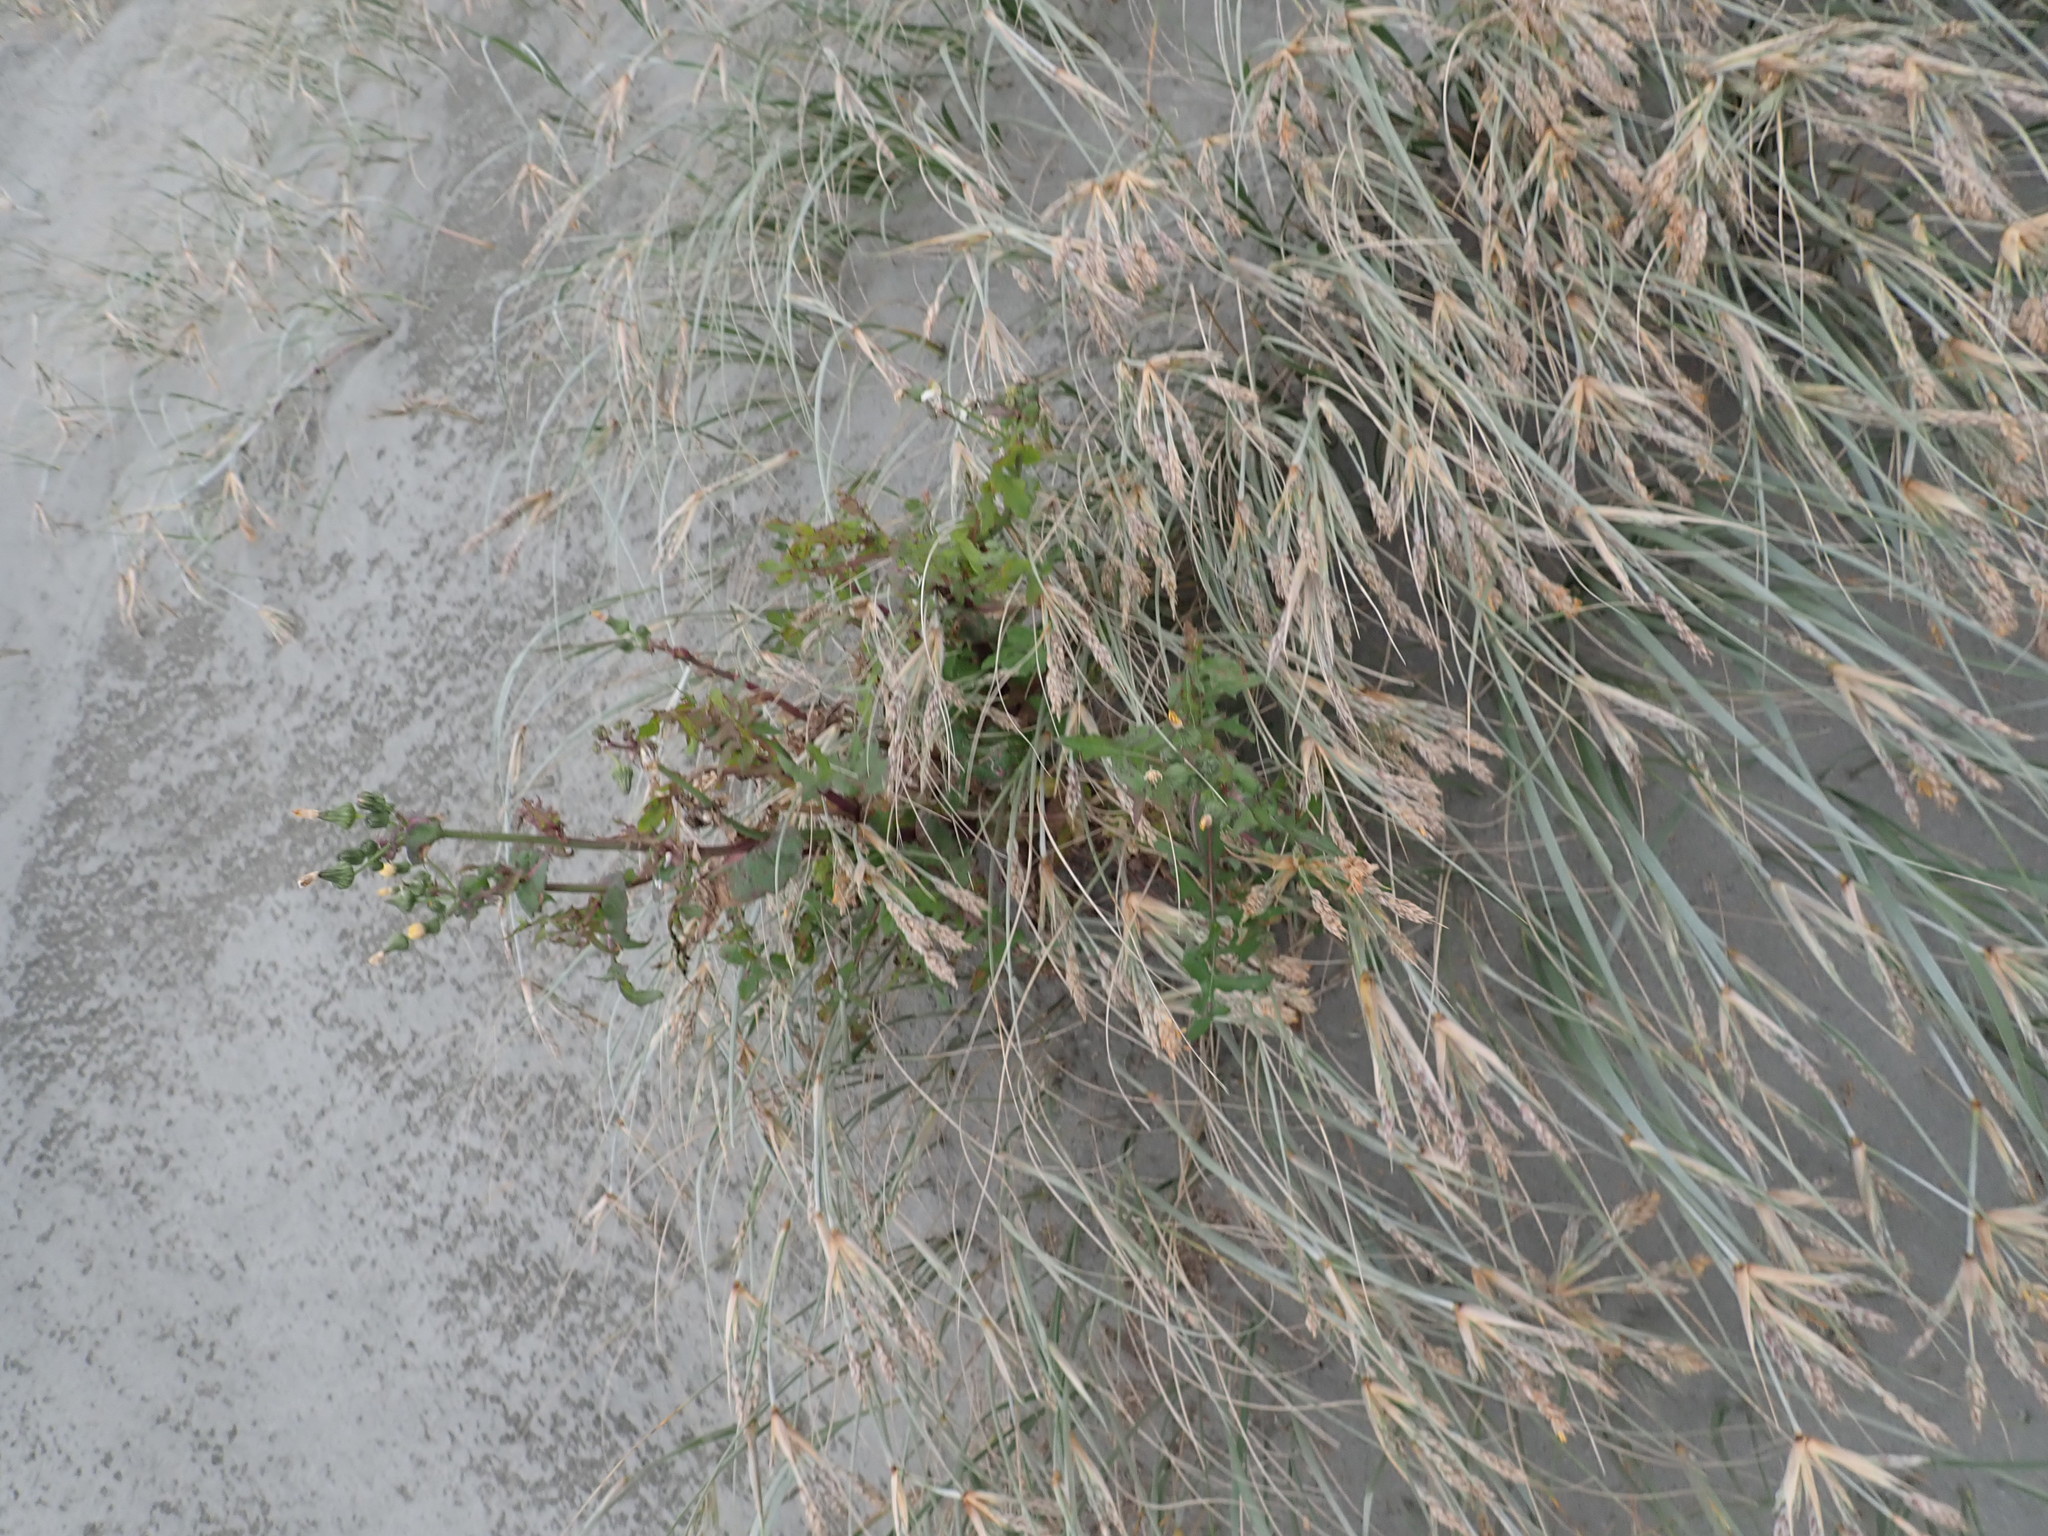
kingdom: Plantae
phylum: Tracheophyta
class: Magnoliopsida
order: Asterales
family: Asteraceae
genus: Sonchus
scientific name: Sonchus oleraceus
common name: Common sowthistle
